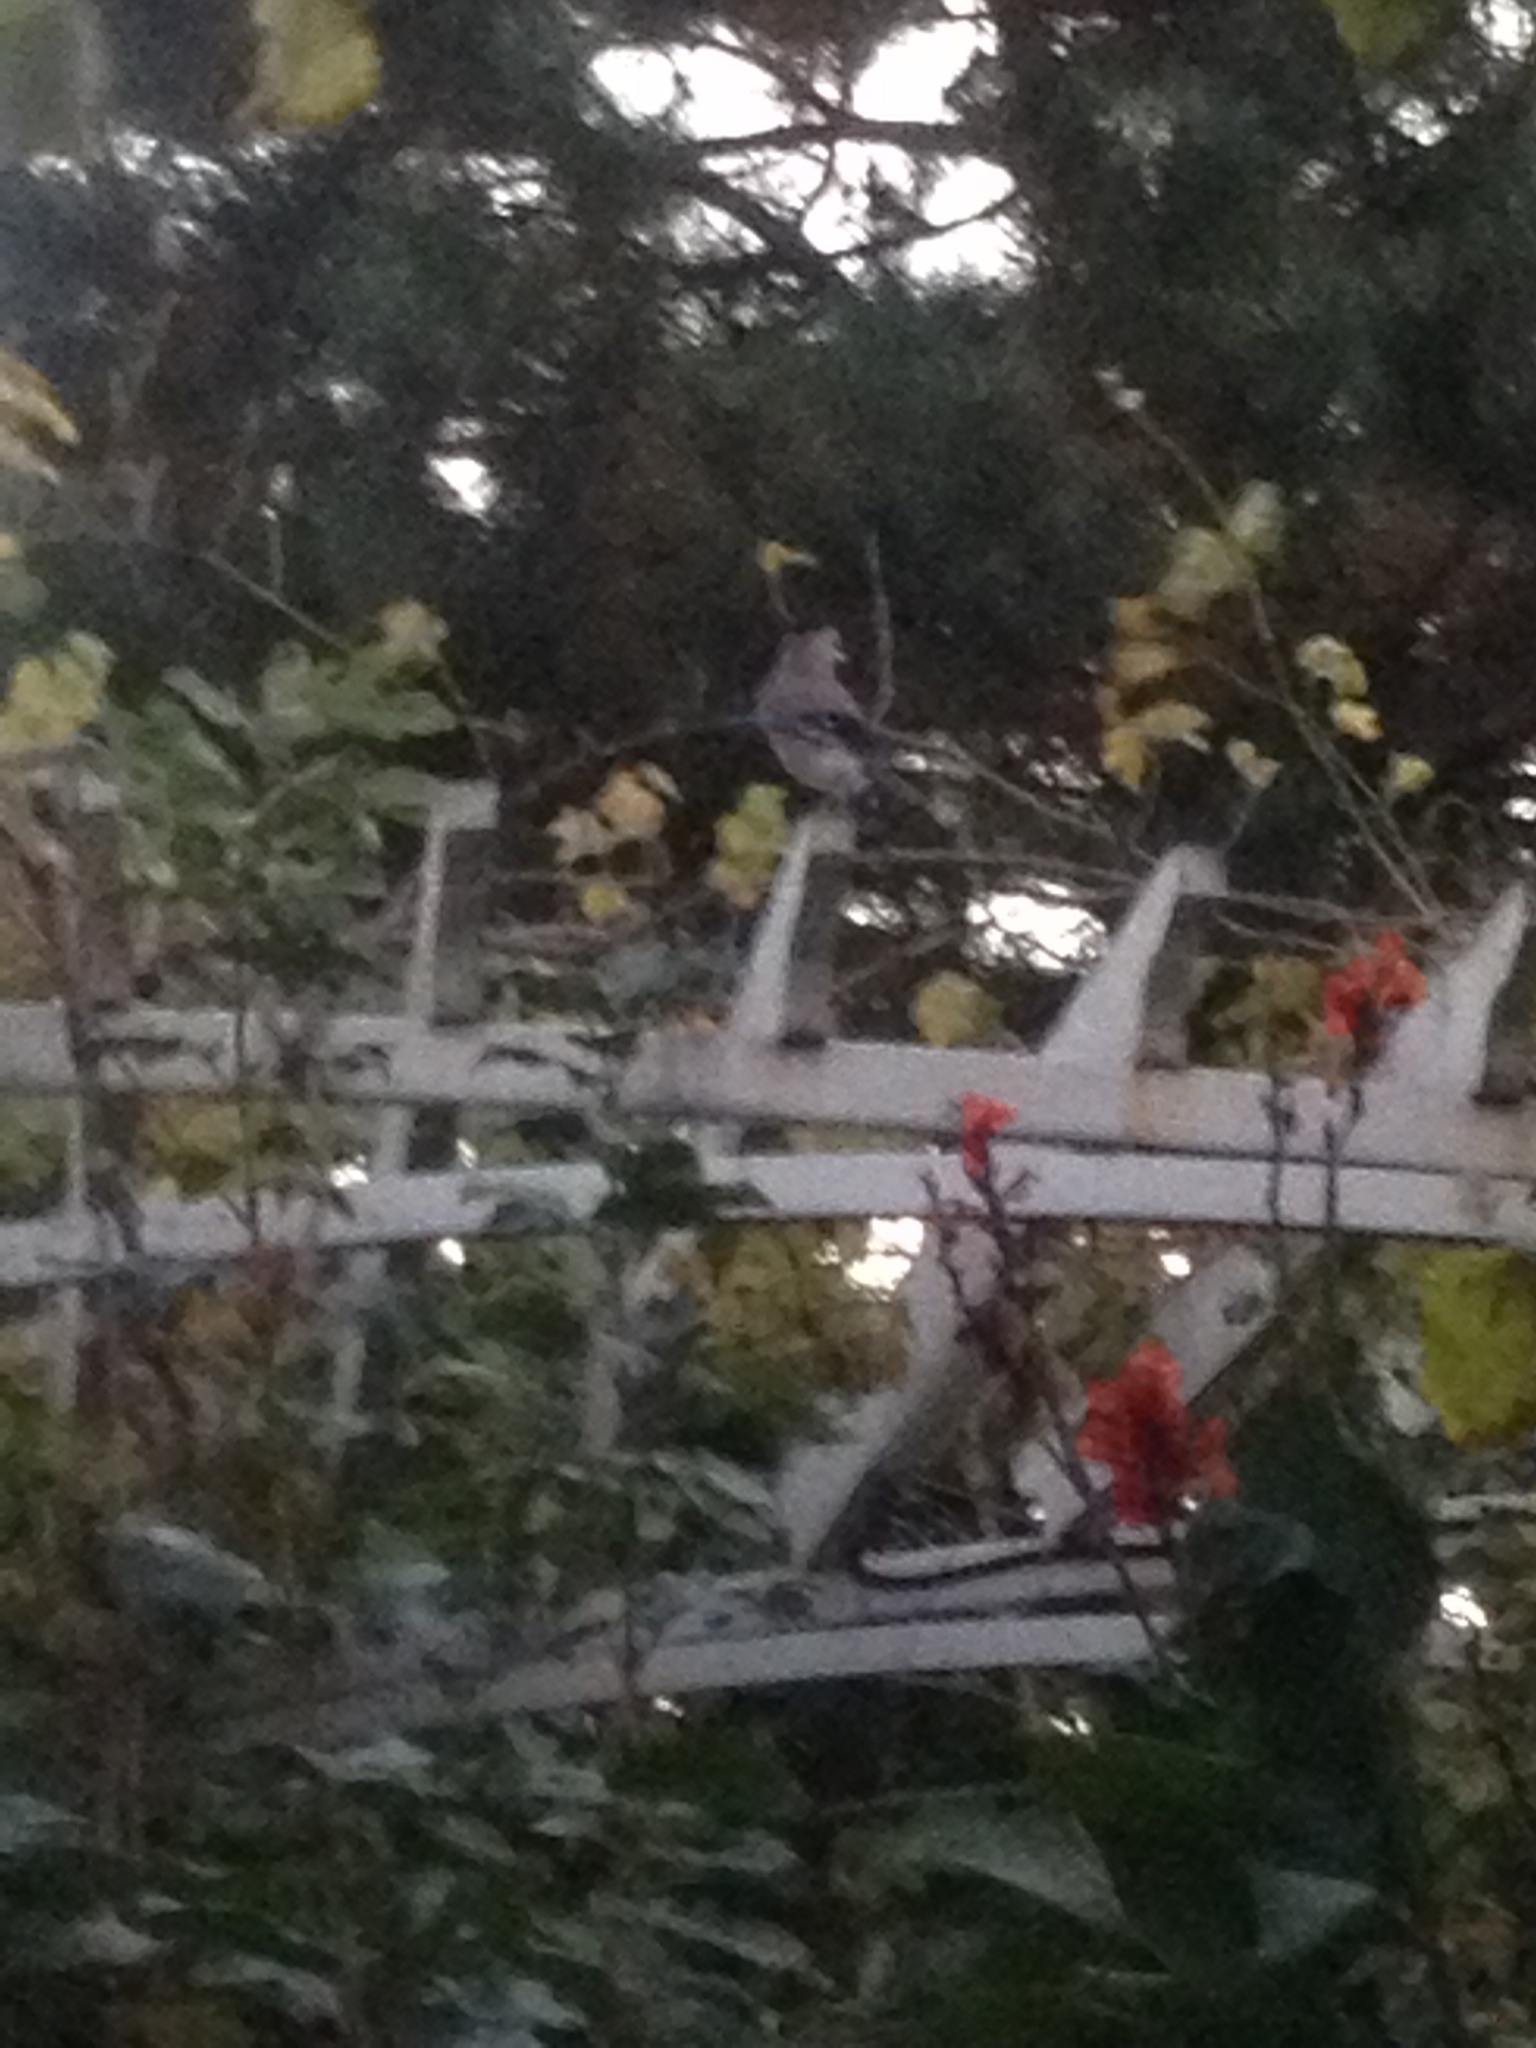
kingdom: Animalia
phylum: Chordata
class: Aves
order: Passeriformes
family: Corvidae
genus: Garrulus
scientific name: Garrulus glandarius
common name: Eurasian jay
